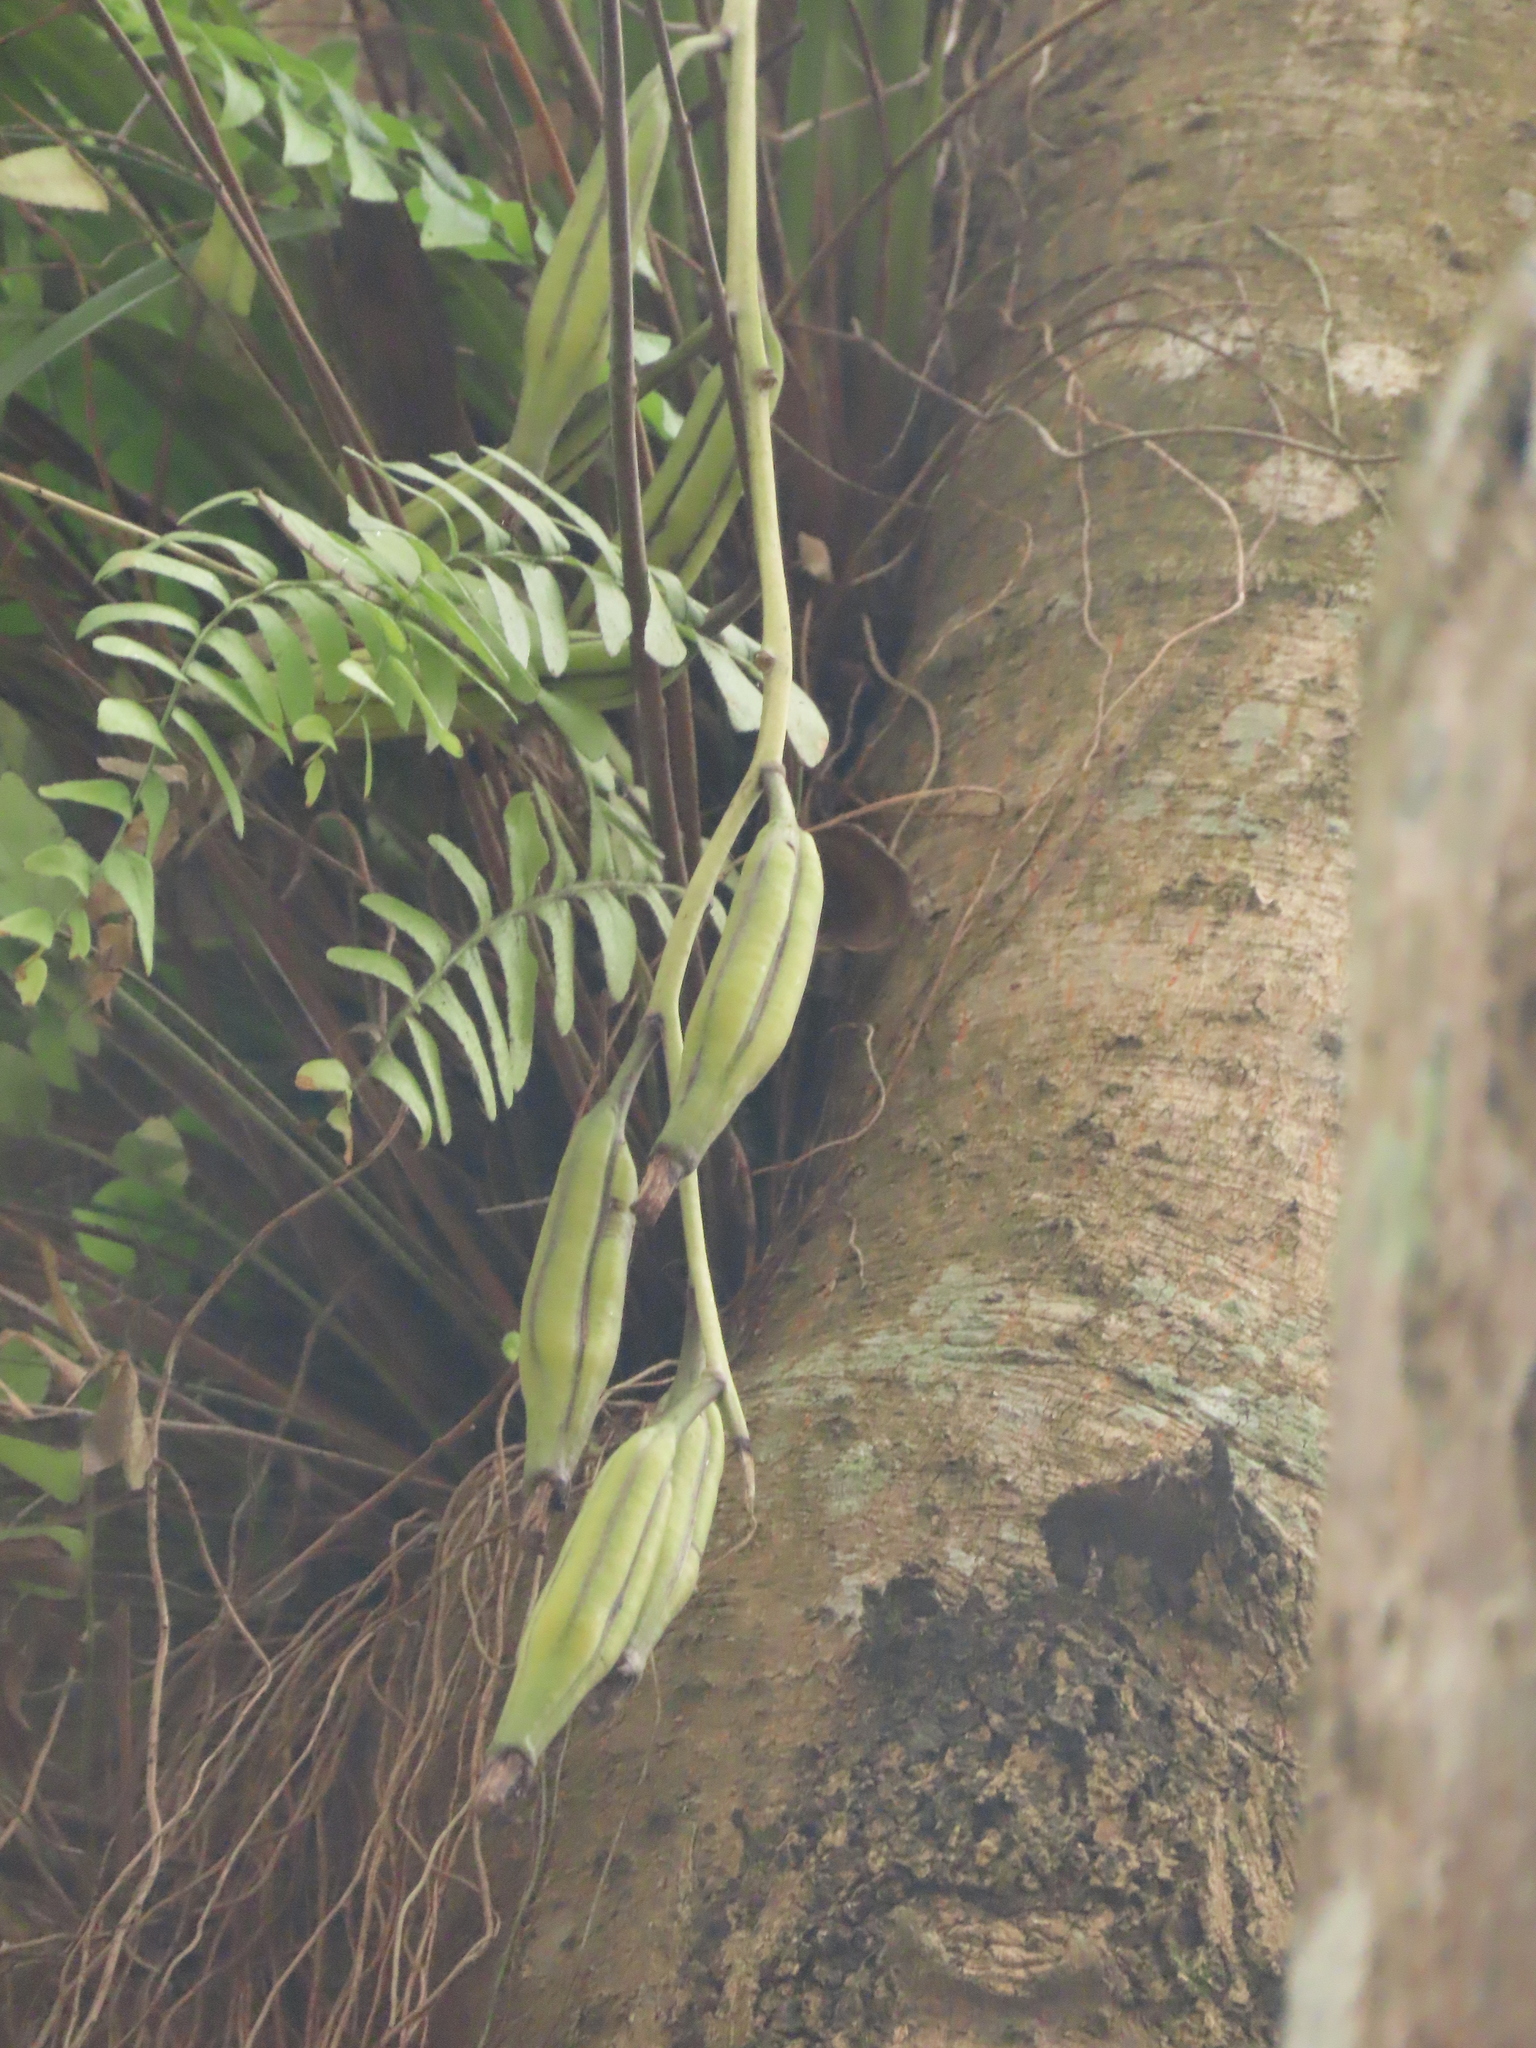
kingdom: Plantae
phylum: Tracheophyta
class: Liliopsida
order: Asparagales
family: Orchidaceae
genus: Cymbidium
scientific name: Cymbidium dayanum
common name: Orchid
